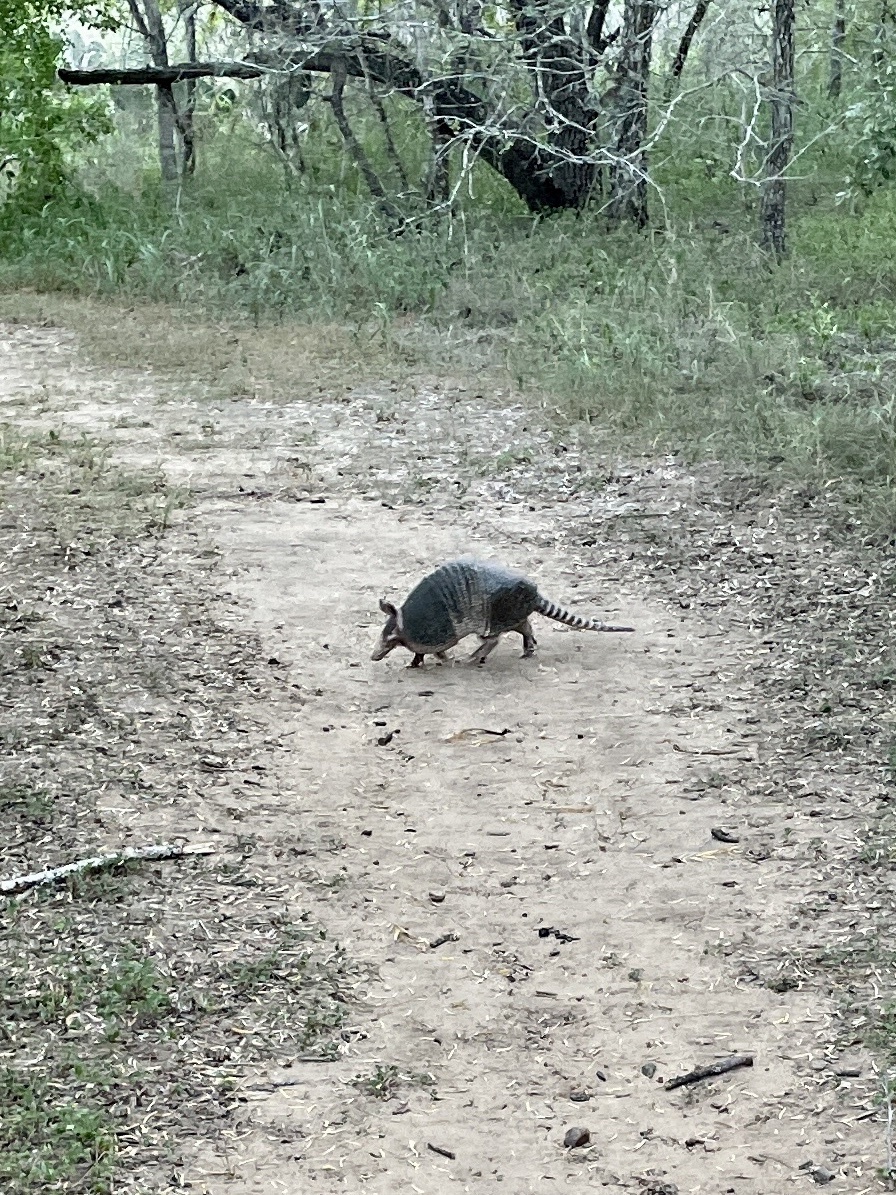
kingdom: Animalia
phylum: Chordata
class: Mammalia
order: Cingulata
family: Dasypodidae
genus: Dasypus
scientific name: Dasypus novemcinctus
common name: Nine-banded armadillo
